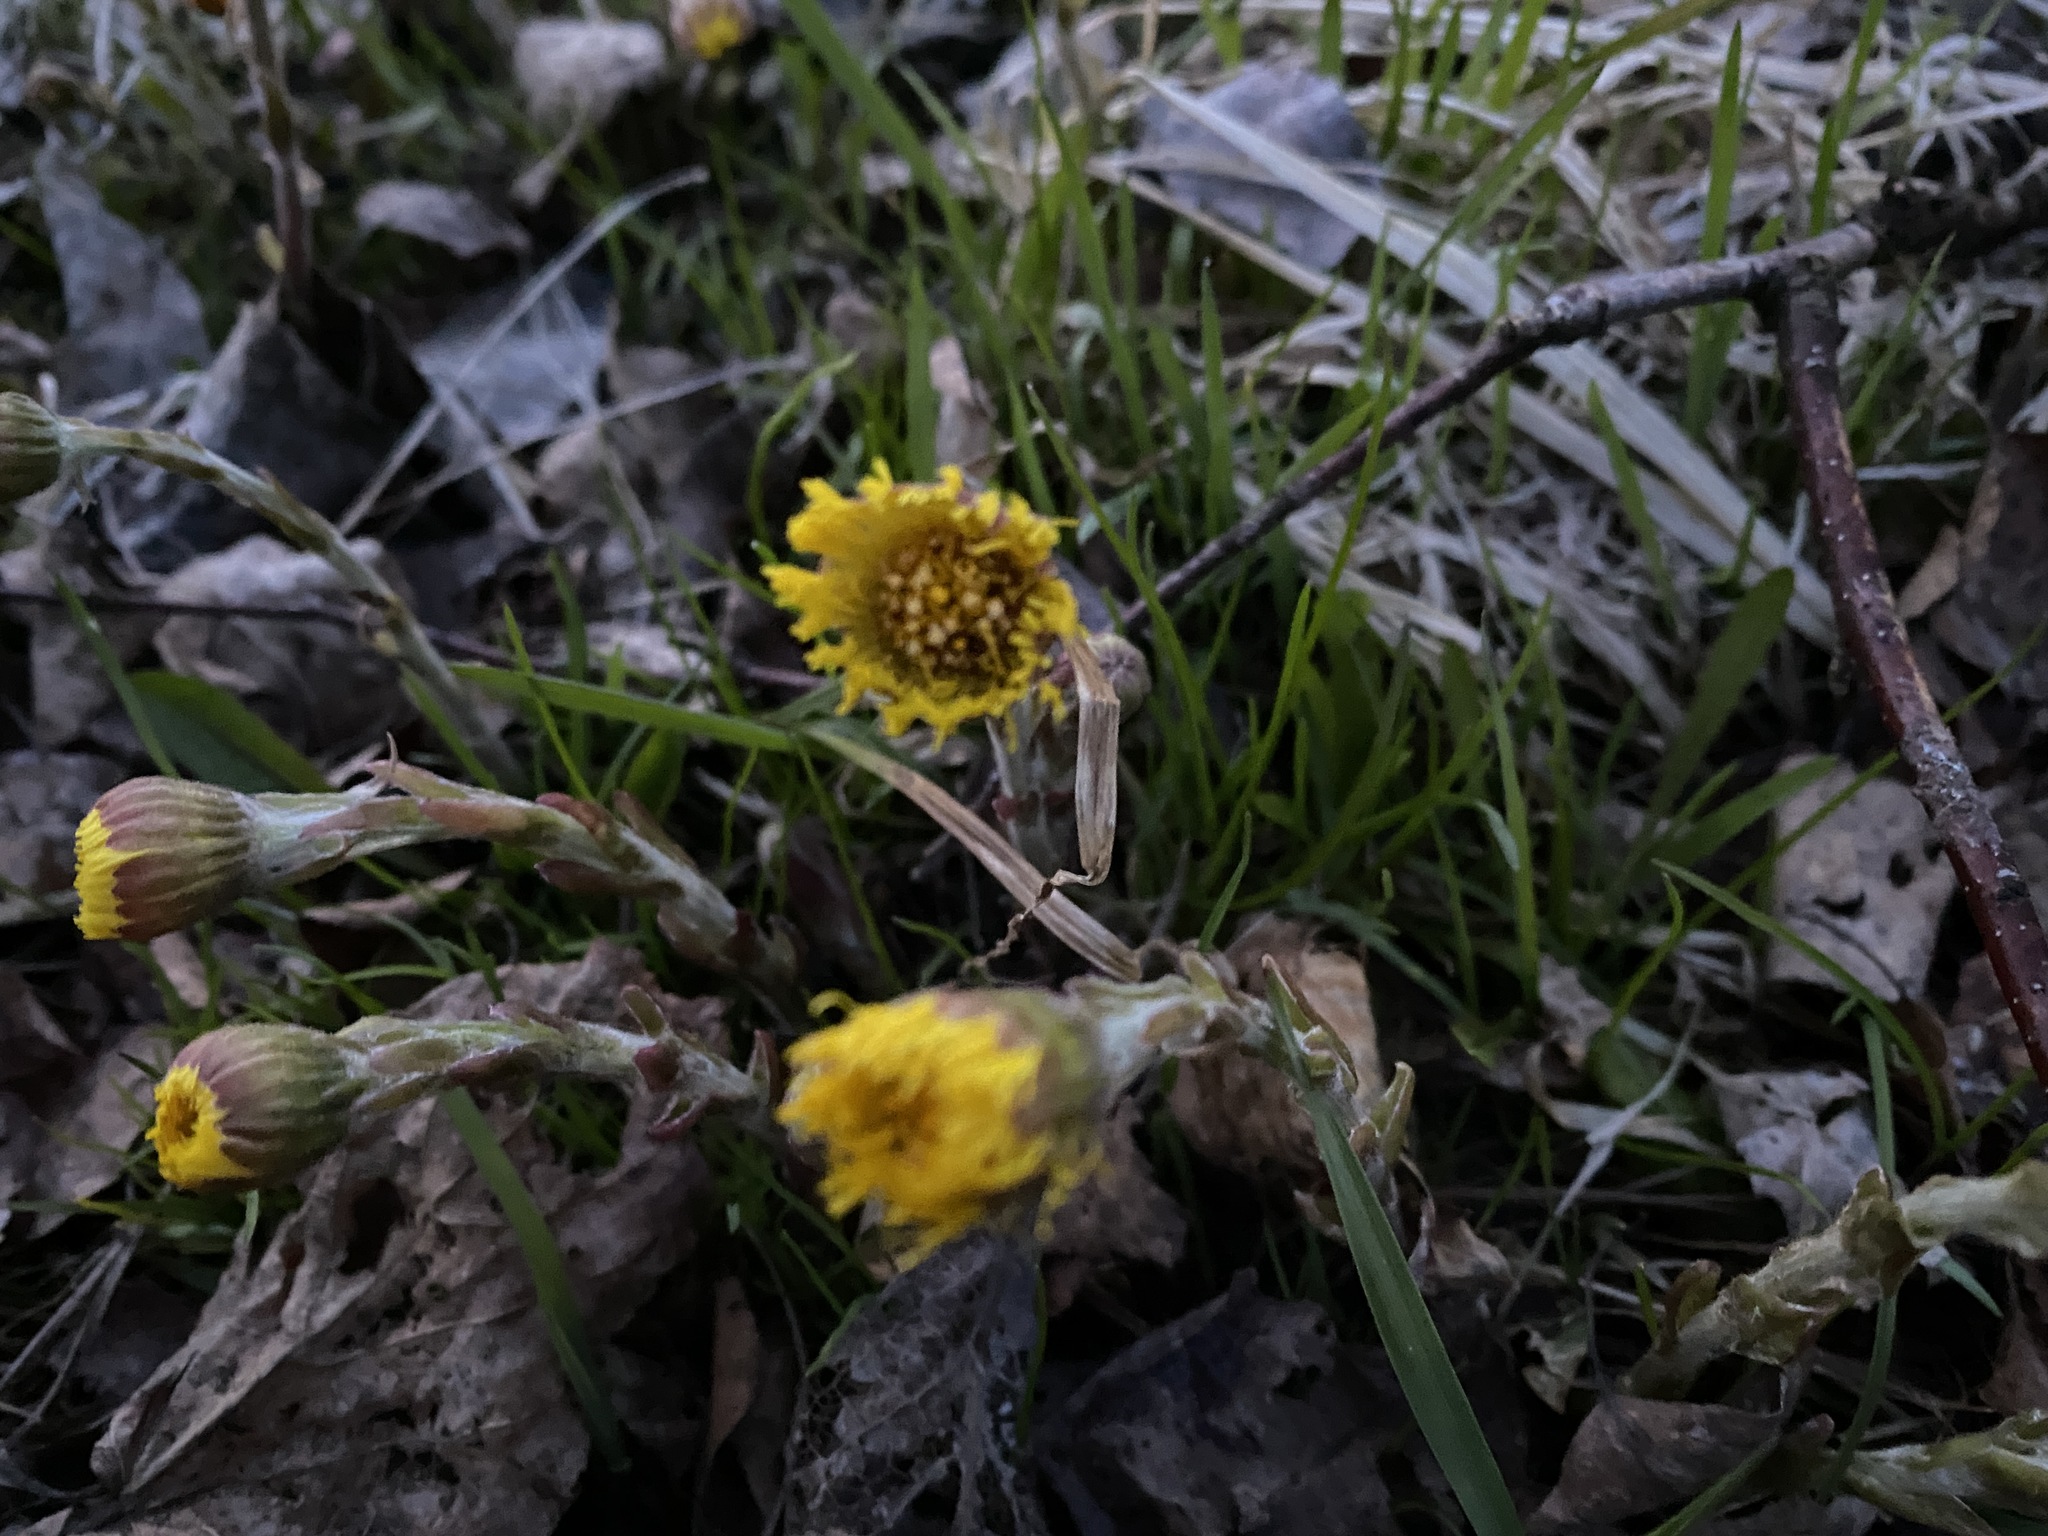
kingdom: Plantae
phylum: Tracheophyta
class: Magnoliopsida
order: Asterales
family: Asteraceae
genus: Tussilago
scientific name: Tussilago farfara
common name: Coltsfoot
